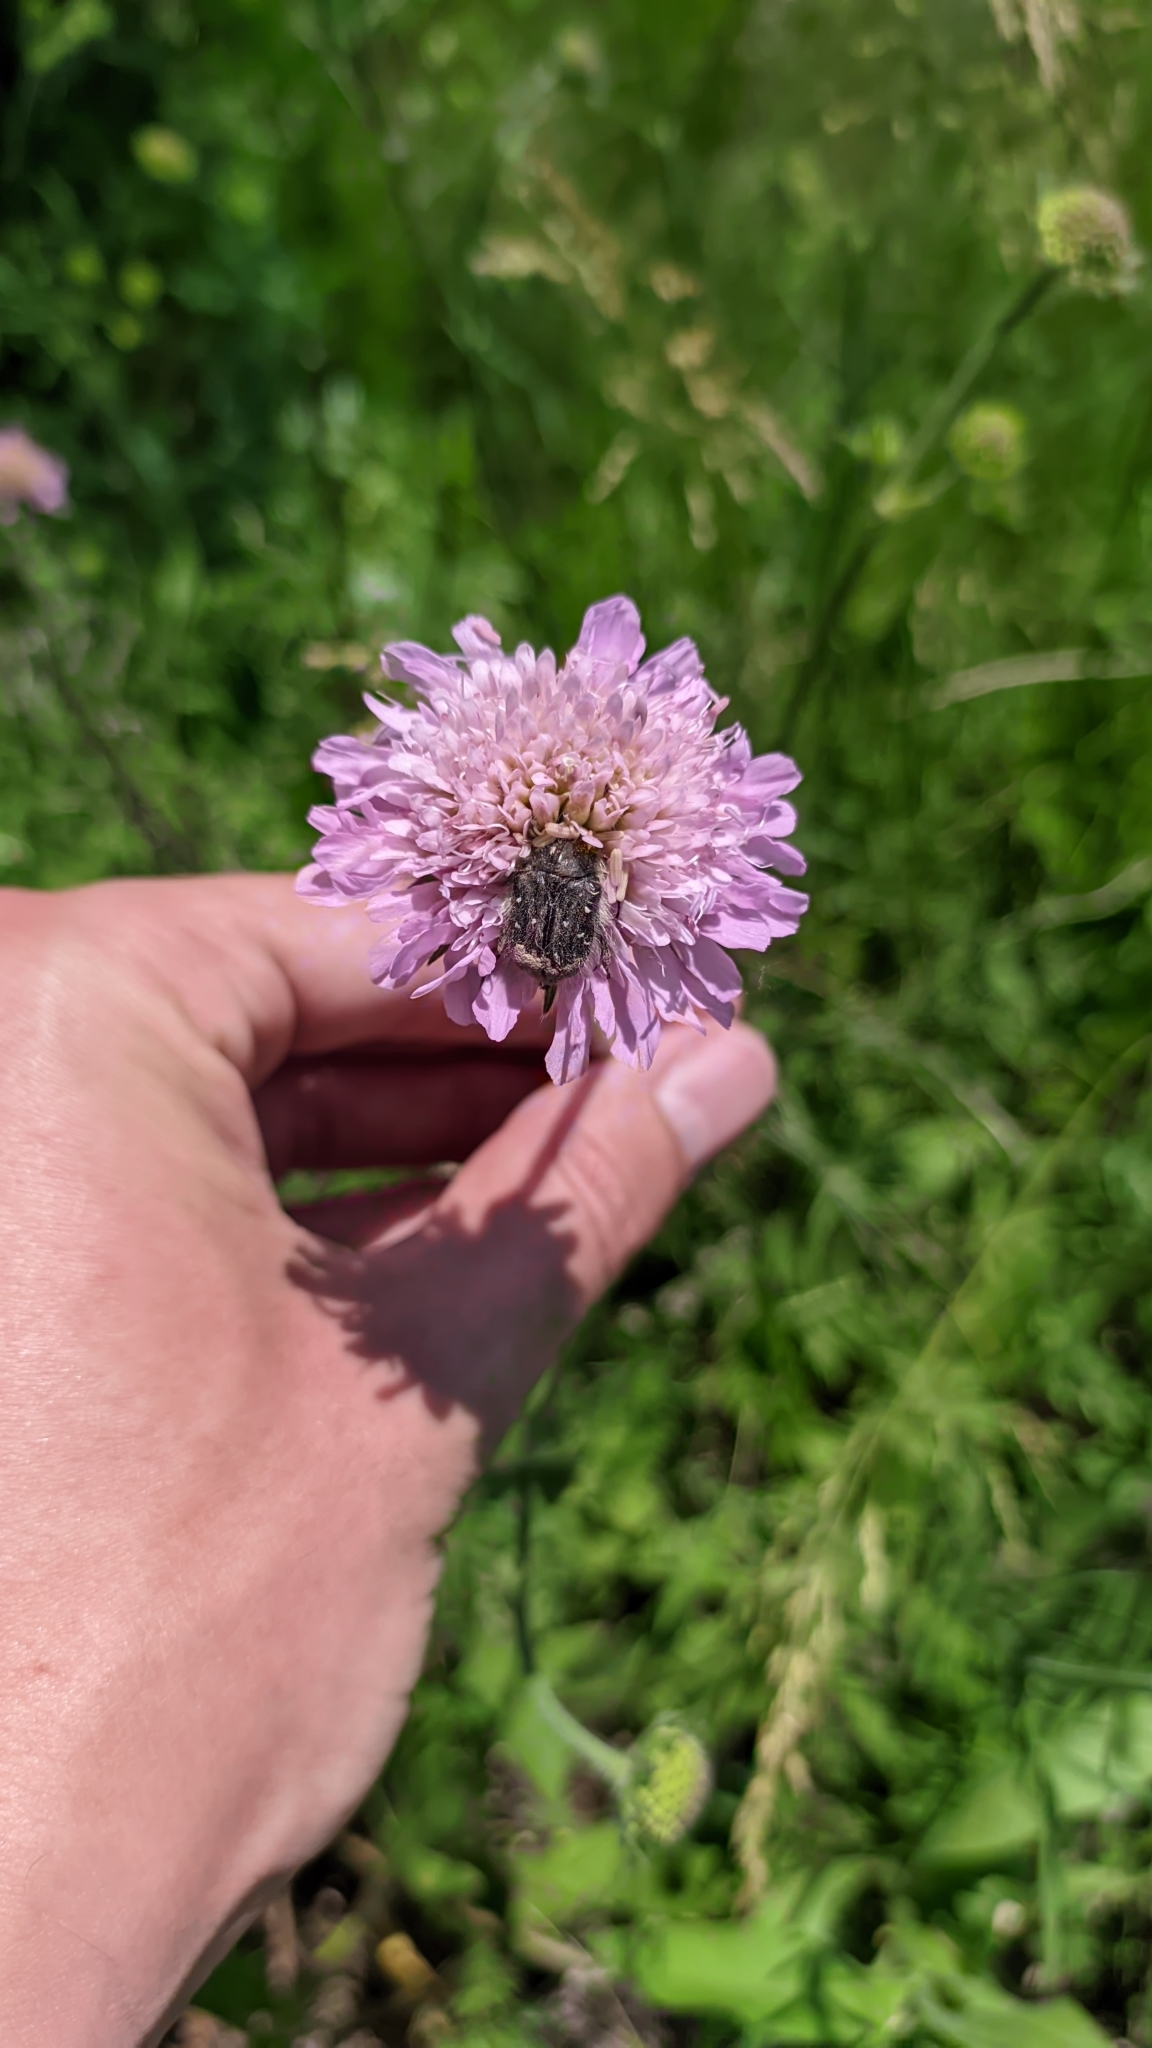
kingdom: Plantae
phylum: Tracheophyta
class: Magnoliopsida
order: Dipsacales
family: Caprifoliaceae
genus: Knautia
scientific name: Knautia arvensis
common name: Field scabiosa
